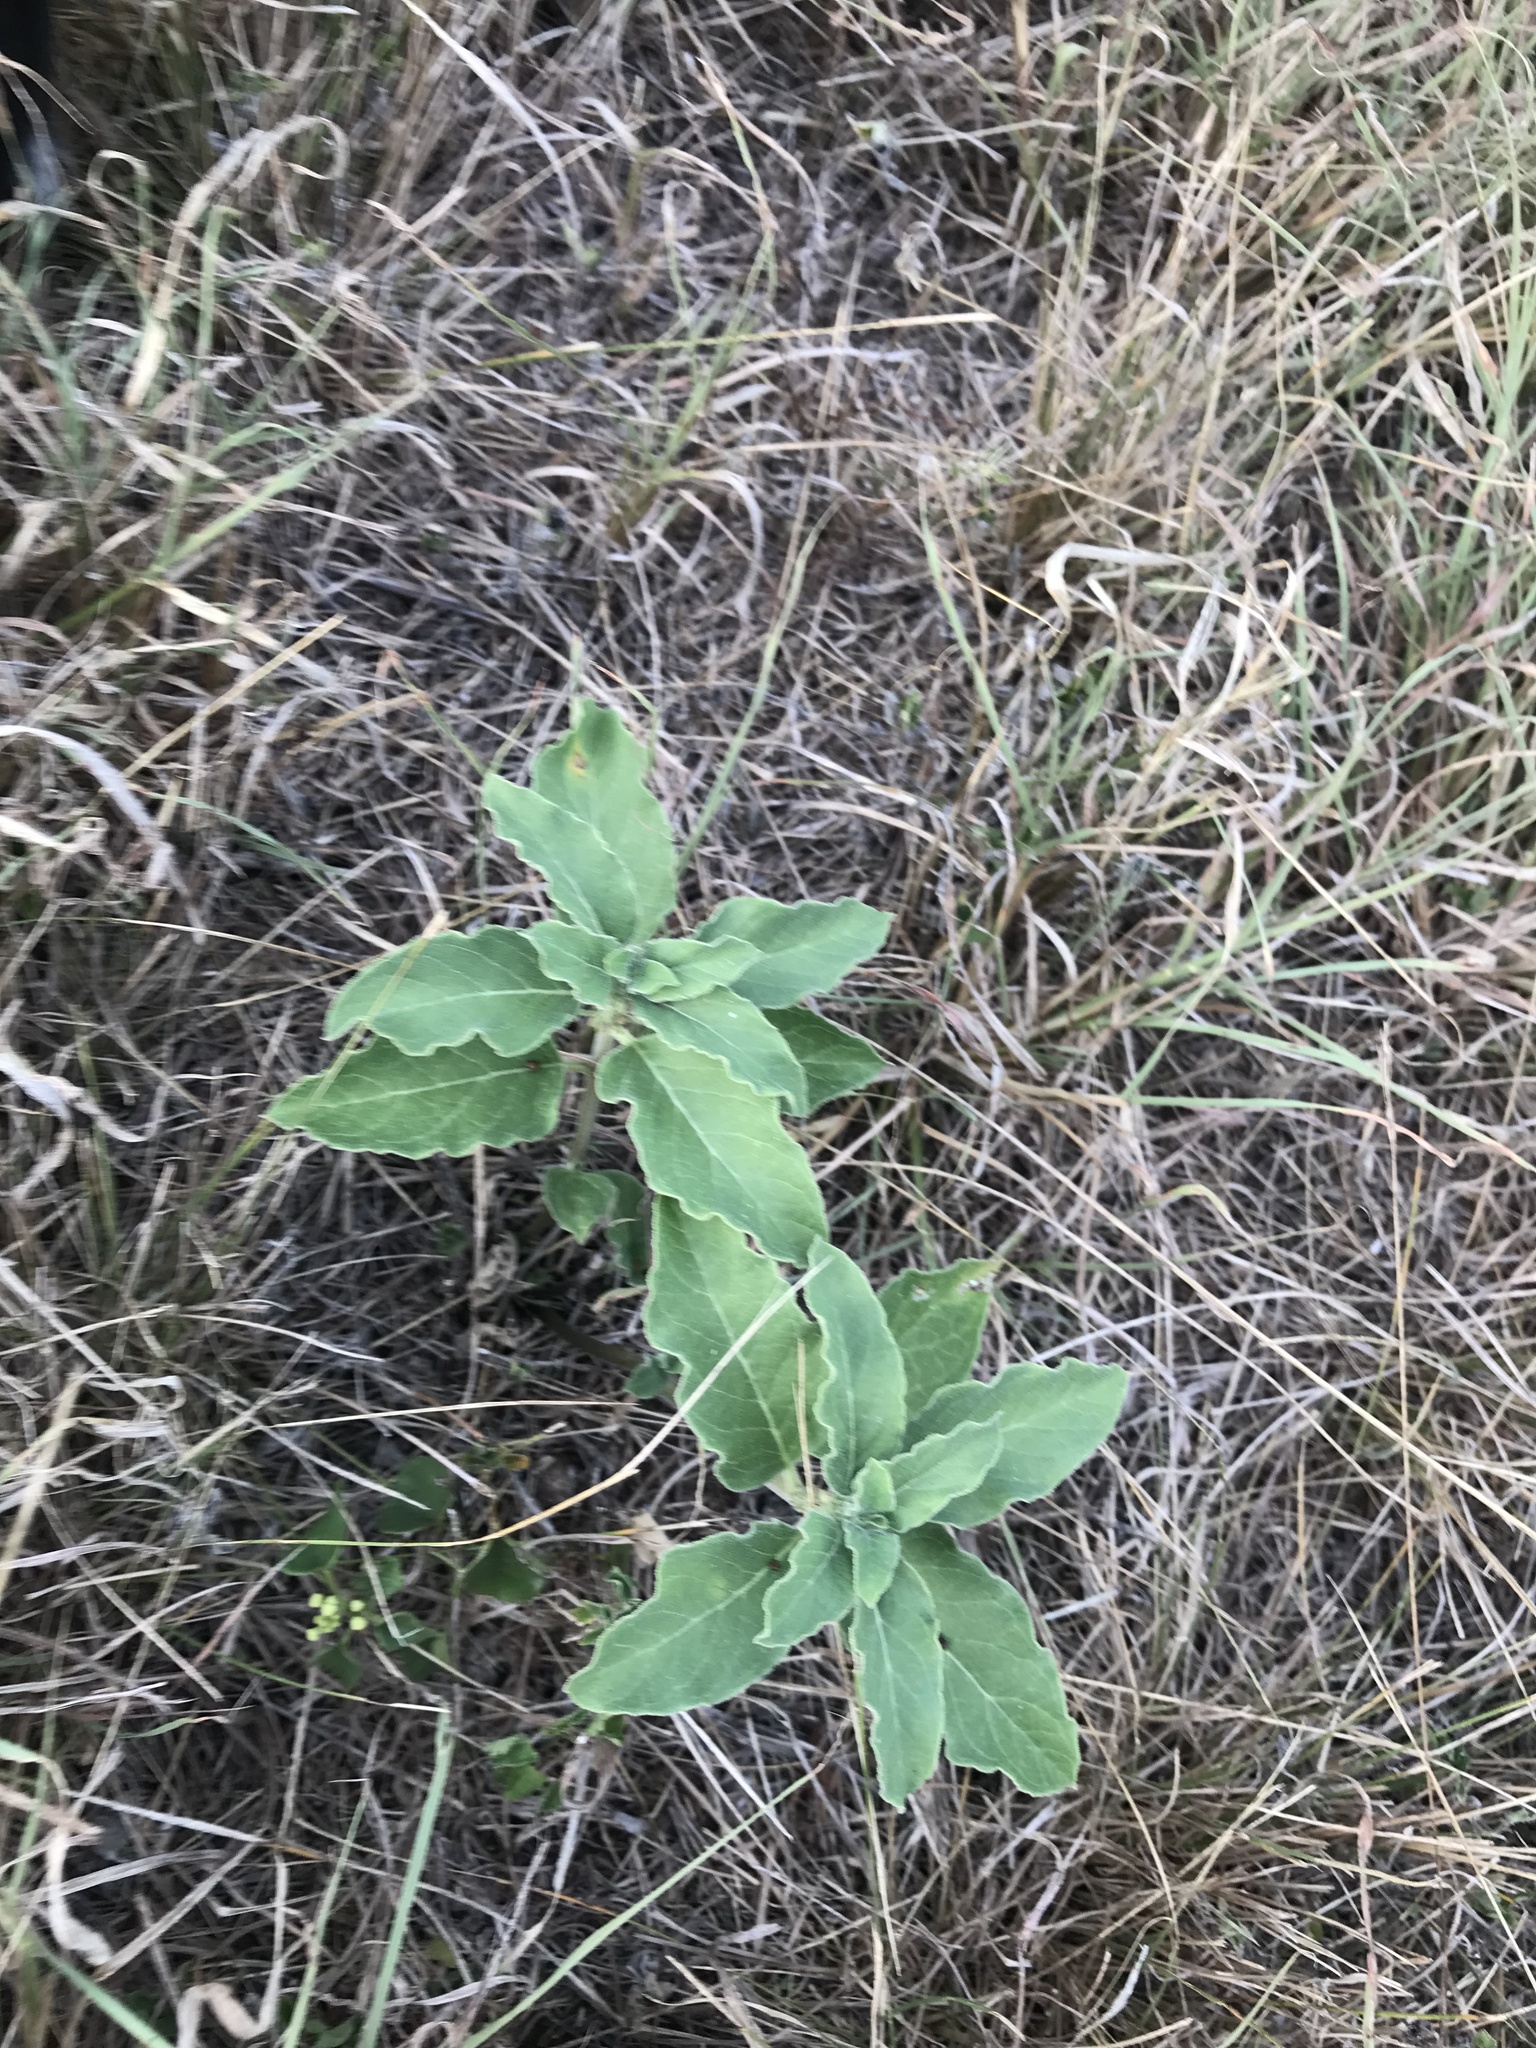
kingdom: Plantae
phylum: Tracheophyta
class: Magnoliopsida
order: Gentianales
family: Apocynaceae
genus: Asclepias
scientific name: Asclepias oenotheroides
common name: Zizotes milkweed
